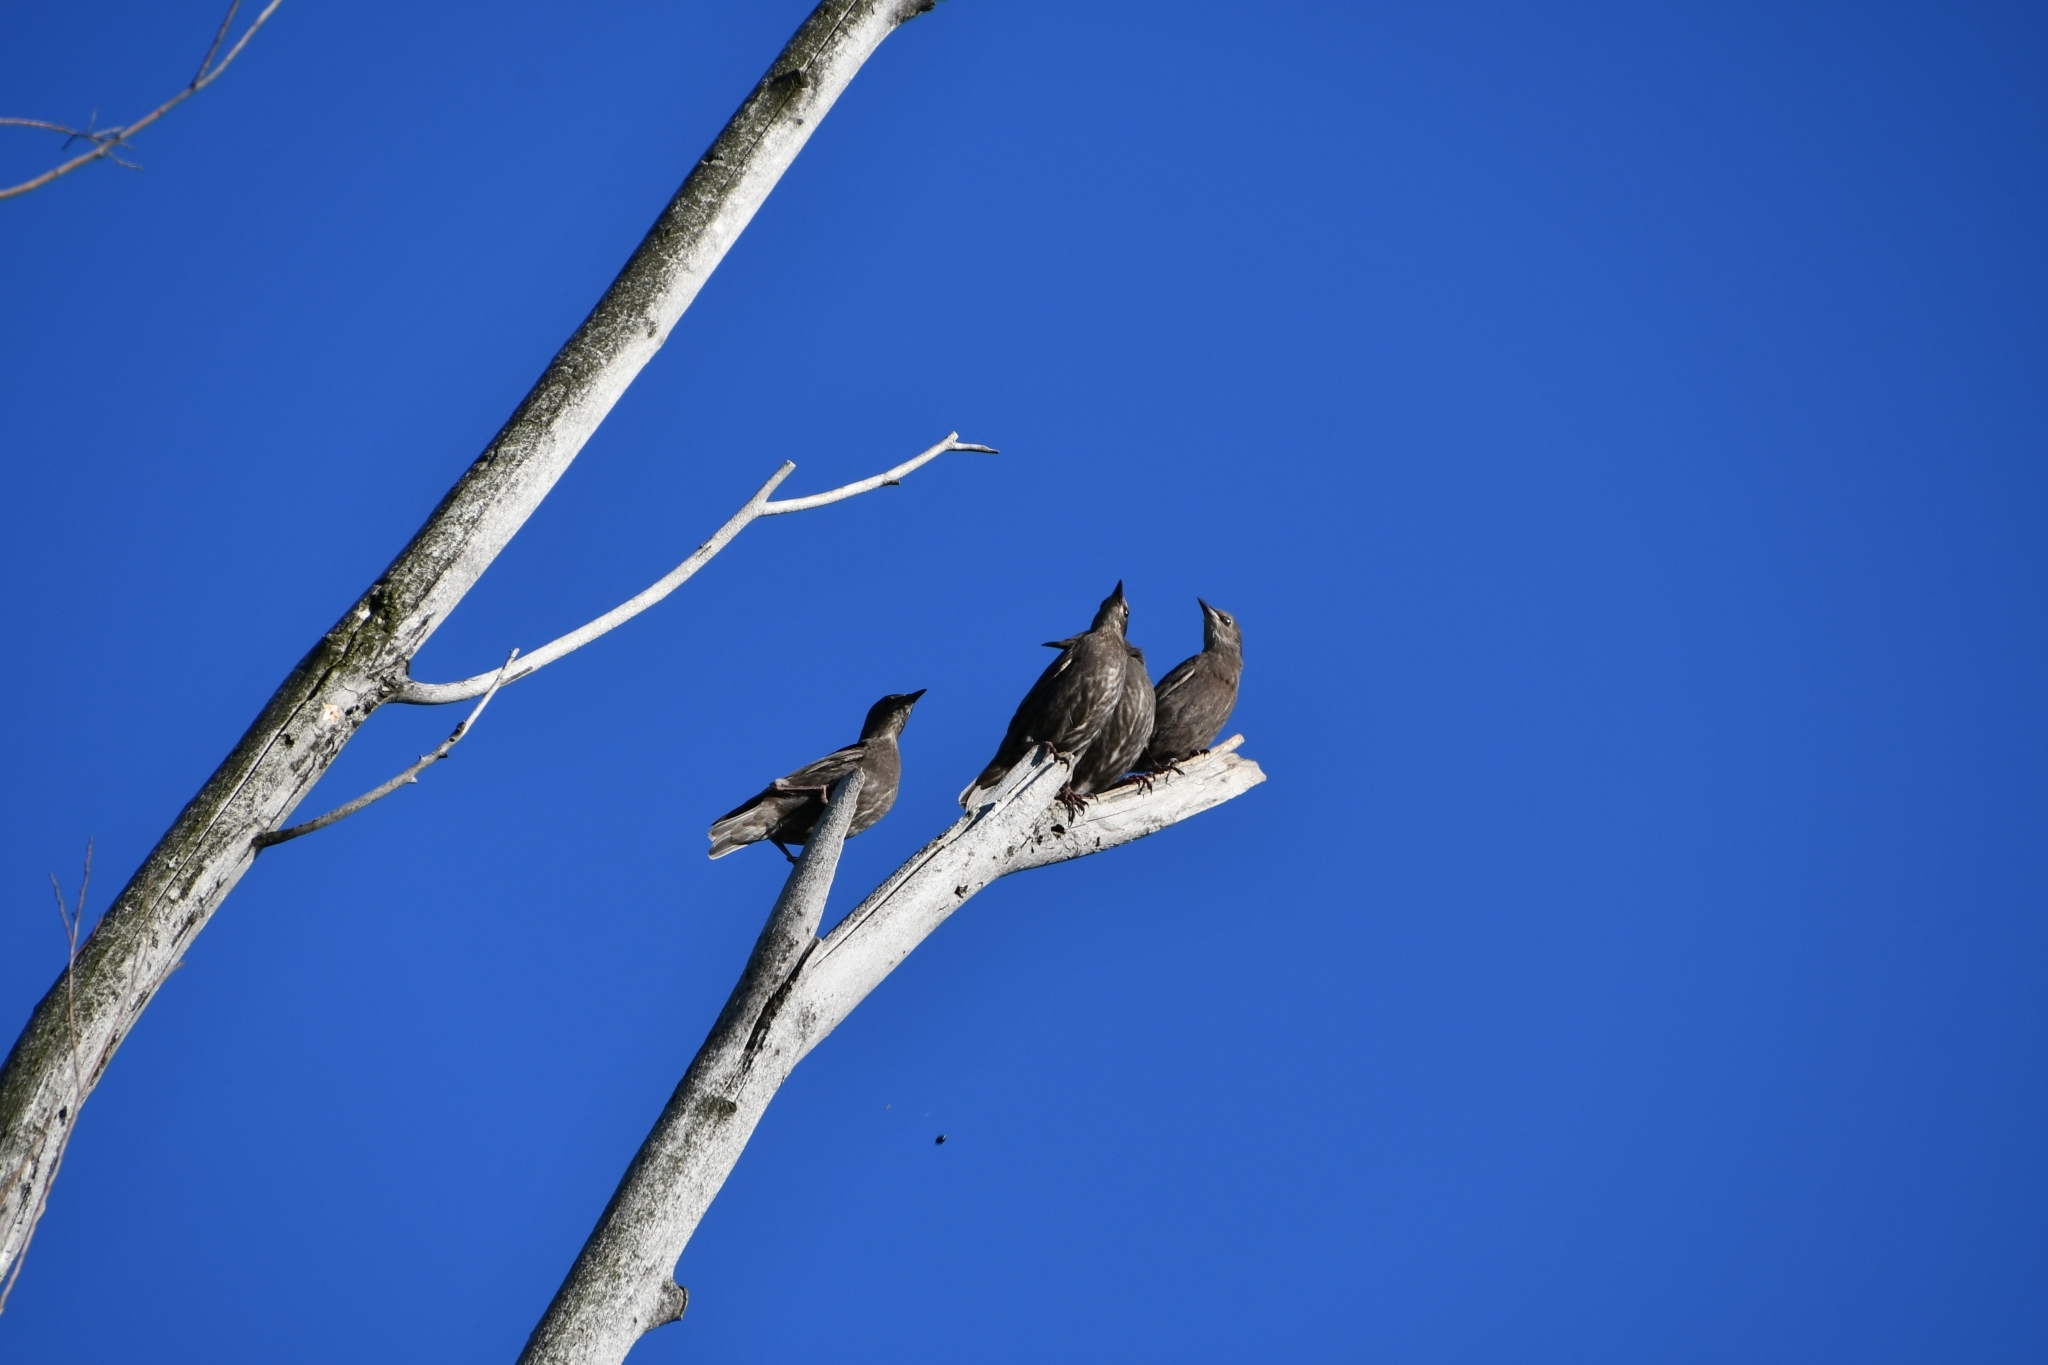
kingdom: Animalia
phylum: Chordata
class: Aves
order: Passeriformes
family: Sturnidae
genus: Sturnus
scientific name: Sturnus vulgaris
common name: Common starling
